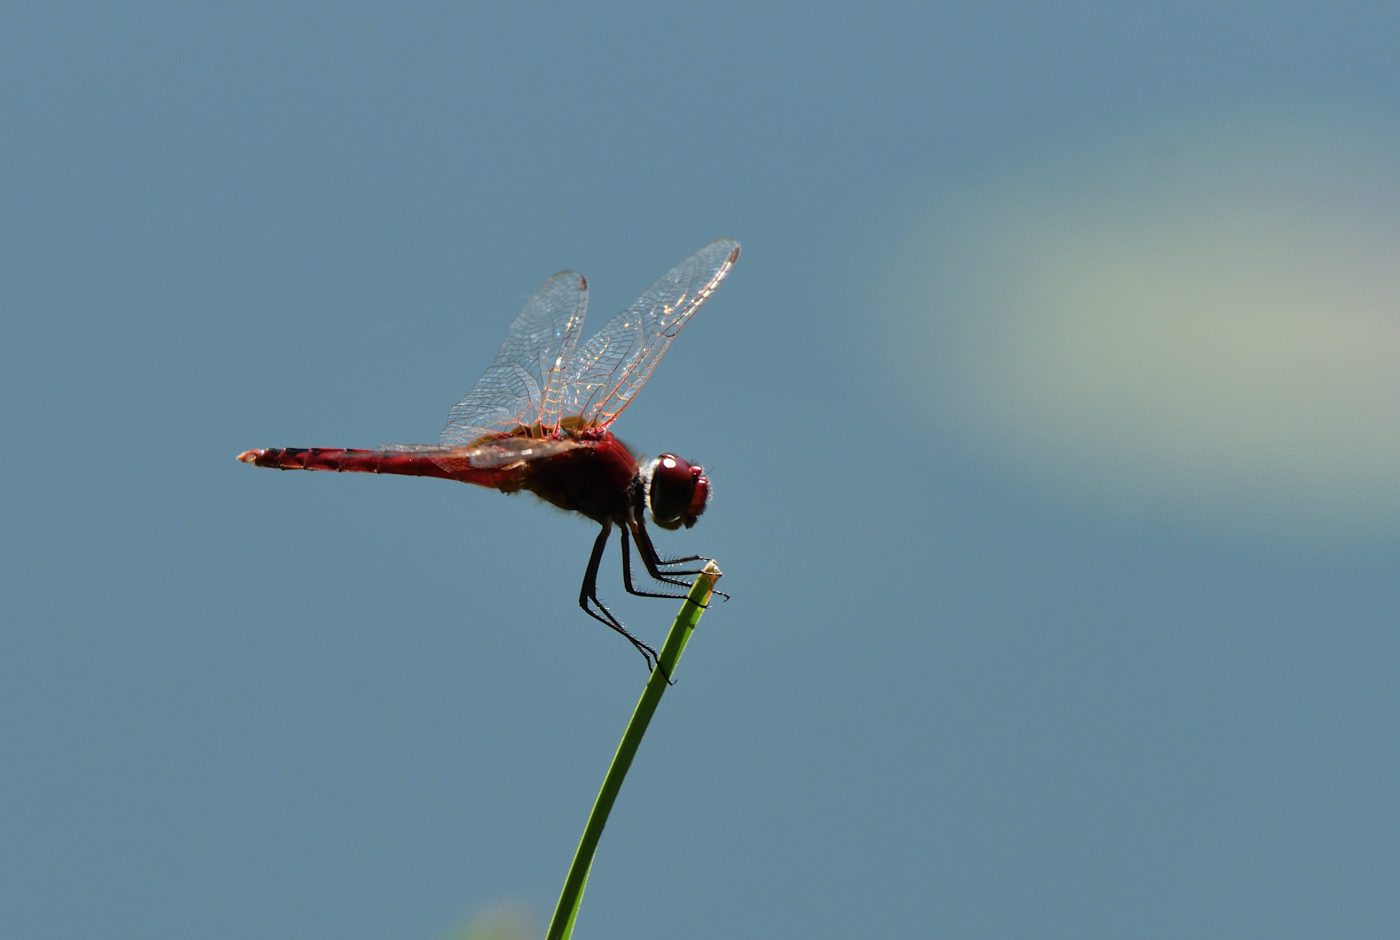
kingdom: Animalia
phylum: Arthropoda
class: Insecta
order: Odonata
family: Libellulidae
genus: Urothemis
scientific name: Urothemis signata
